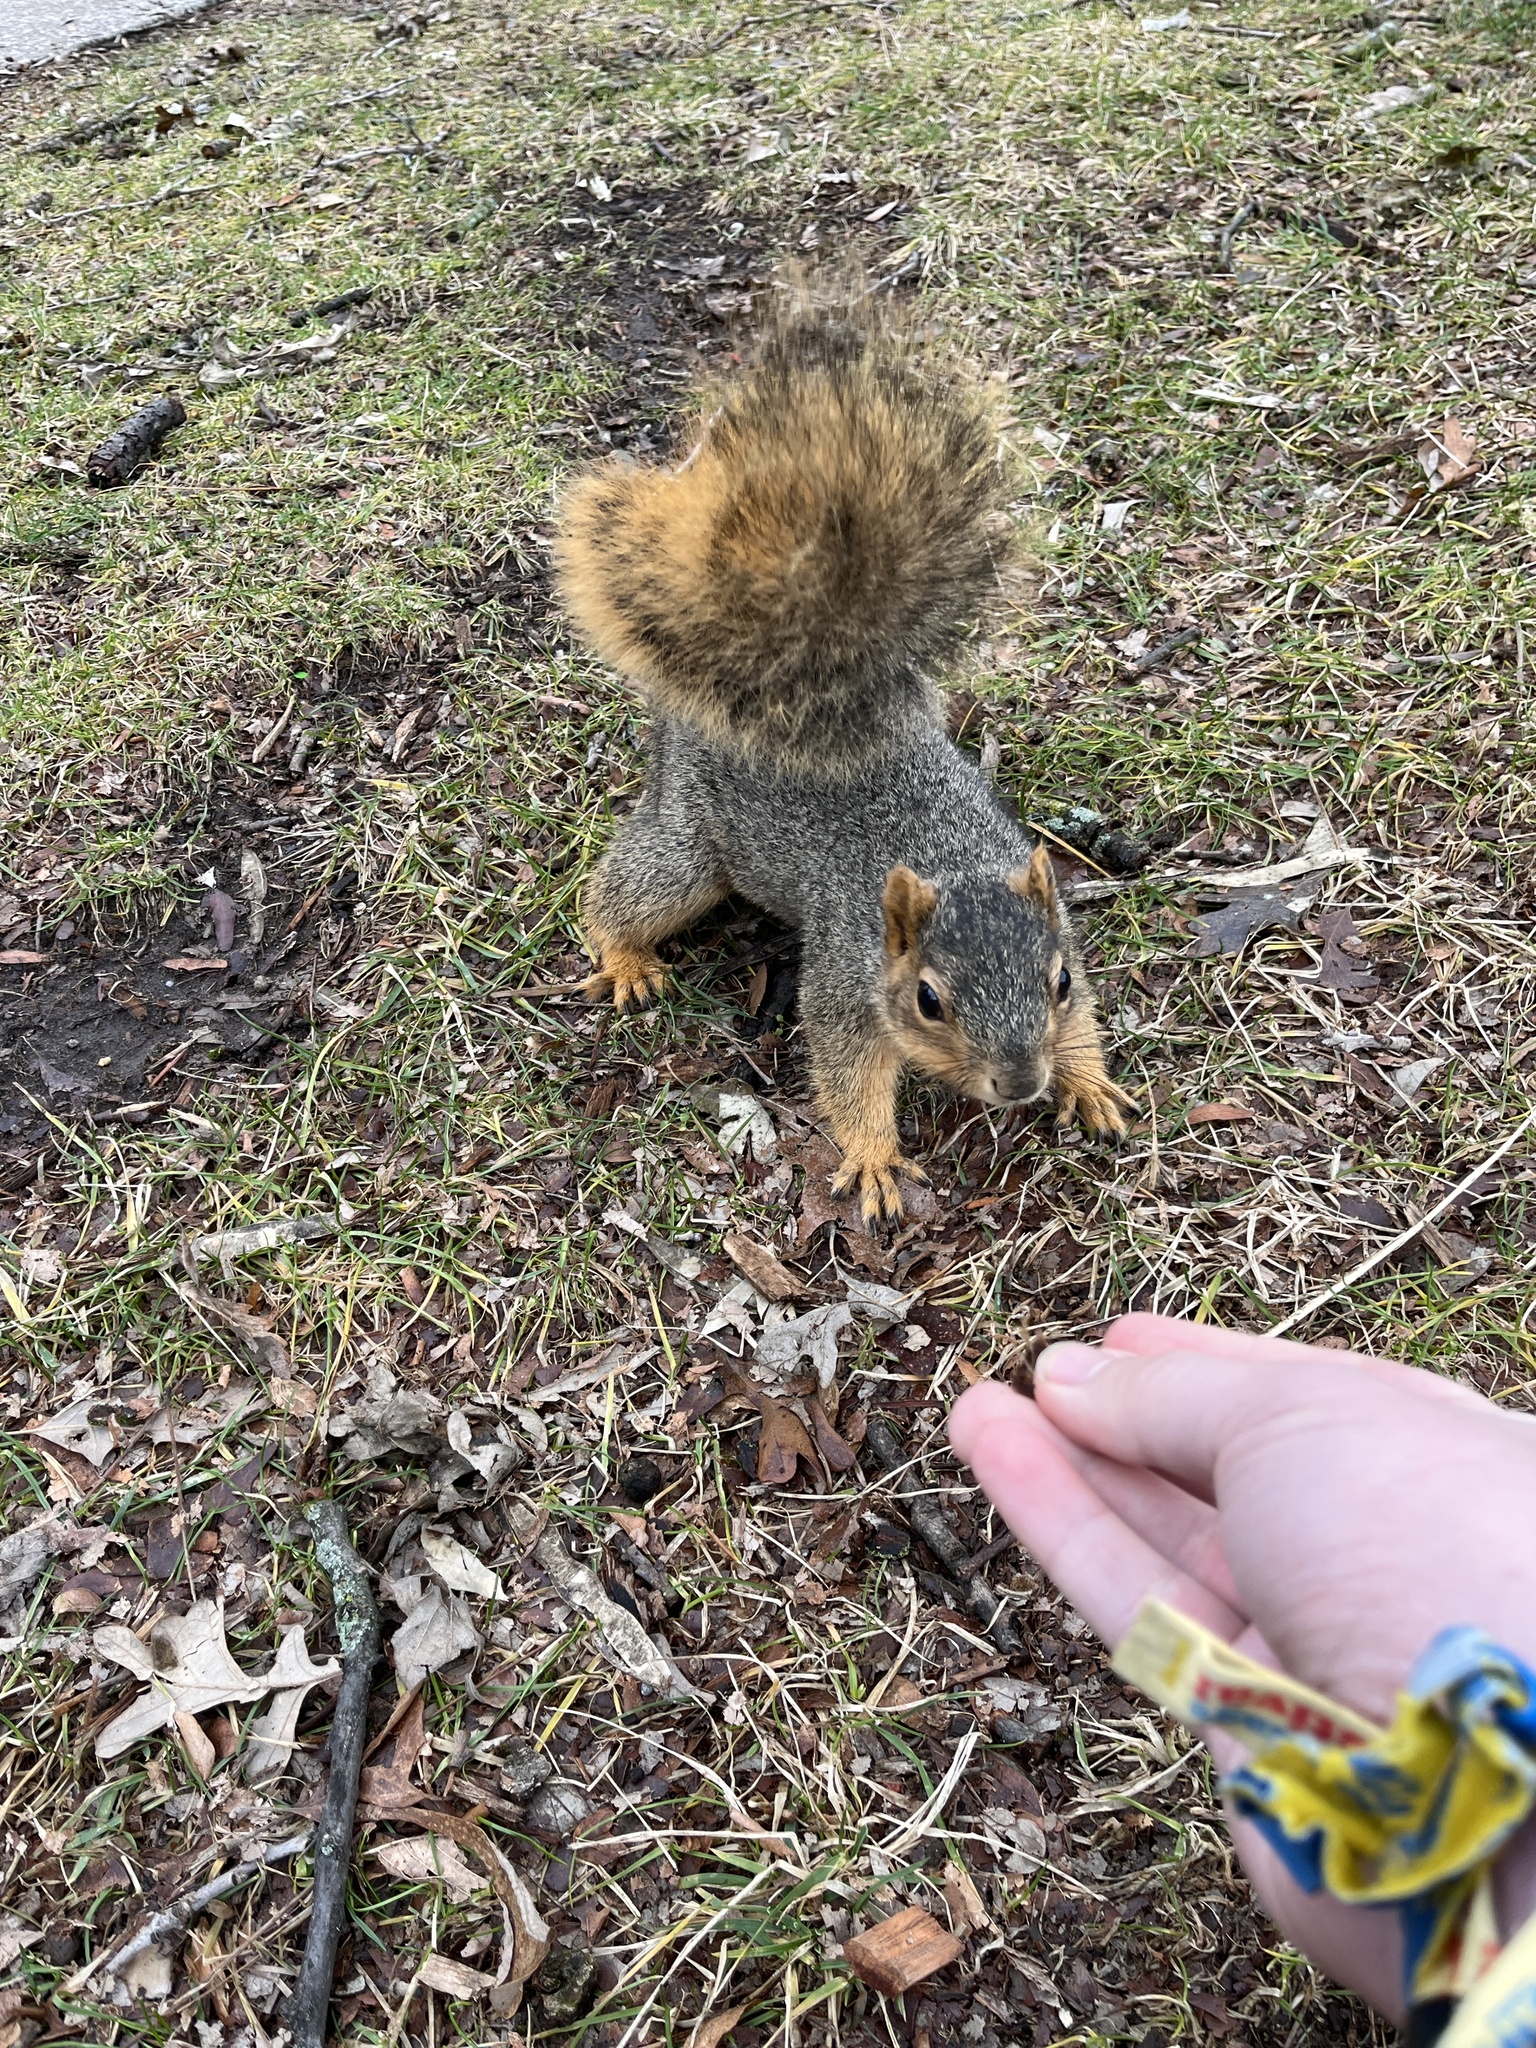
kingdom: Animalia
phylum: Chordata
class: Mammalia
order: Rodentia
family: Sciuridae
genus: Sciurus
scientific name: Sciurus niger
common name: Fox squirrel
